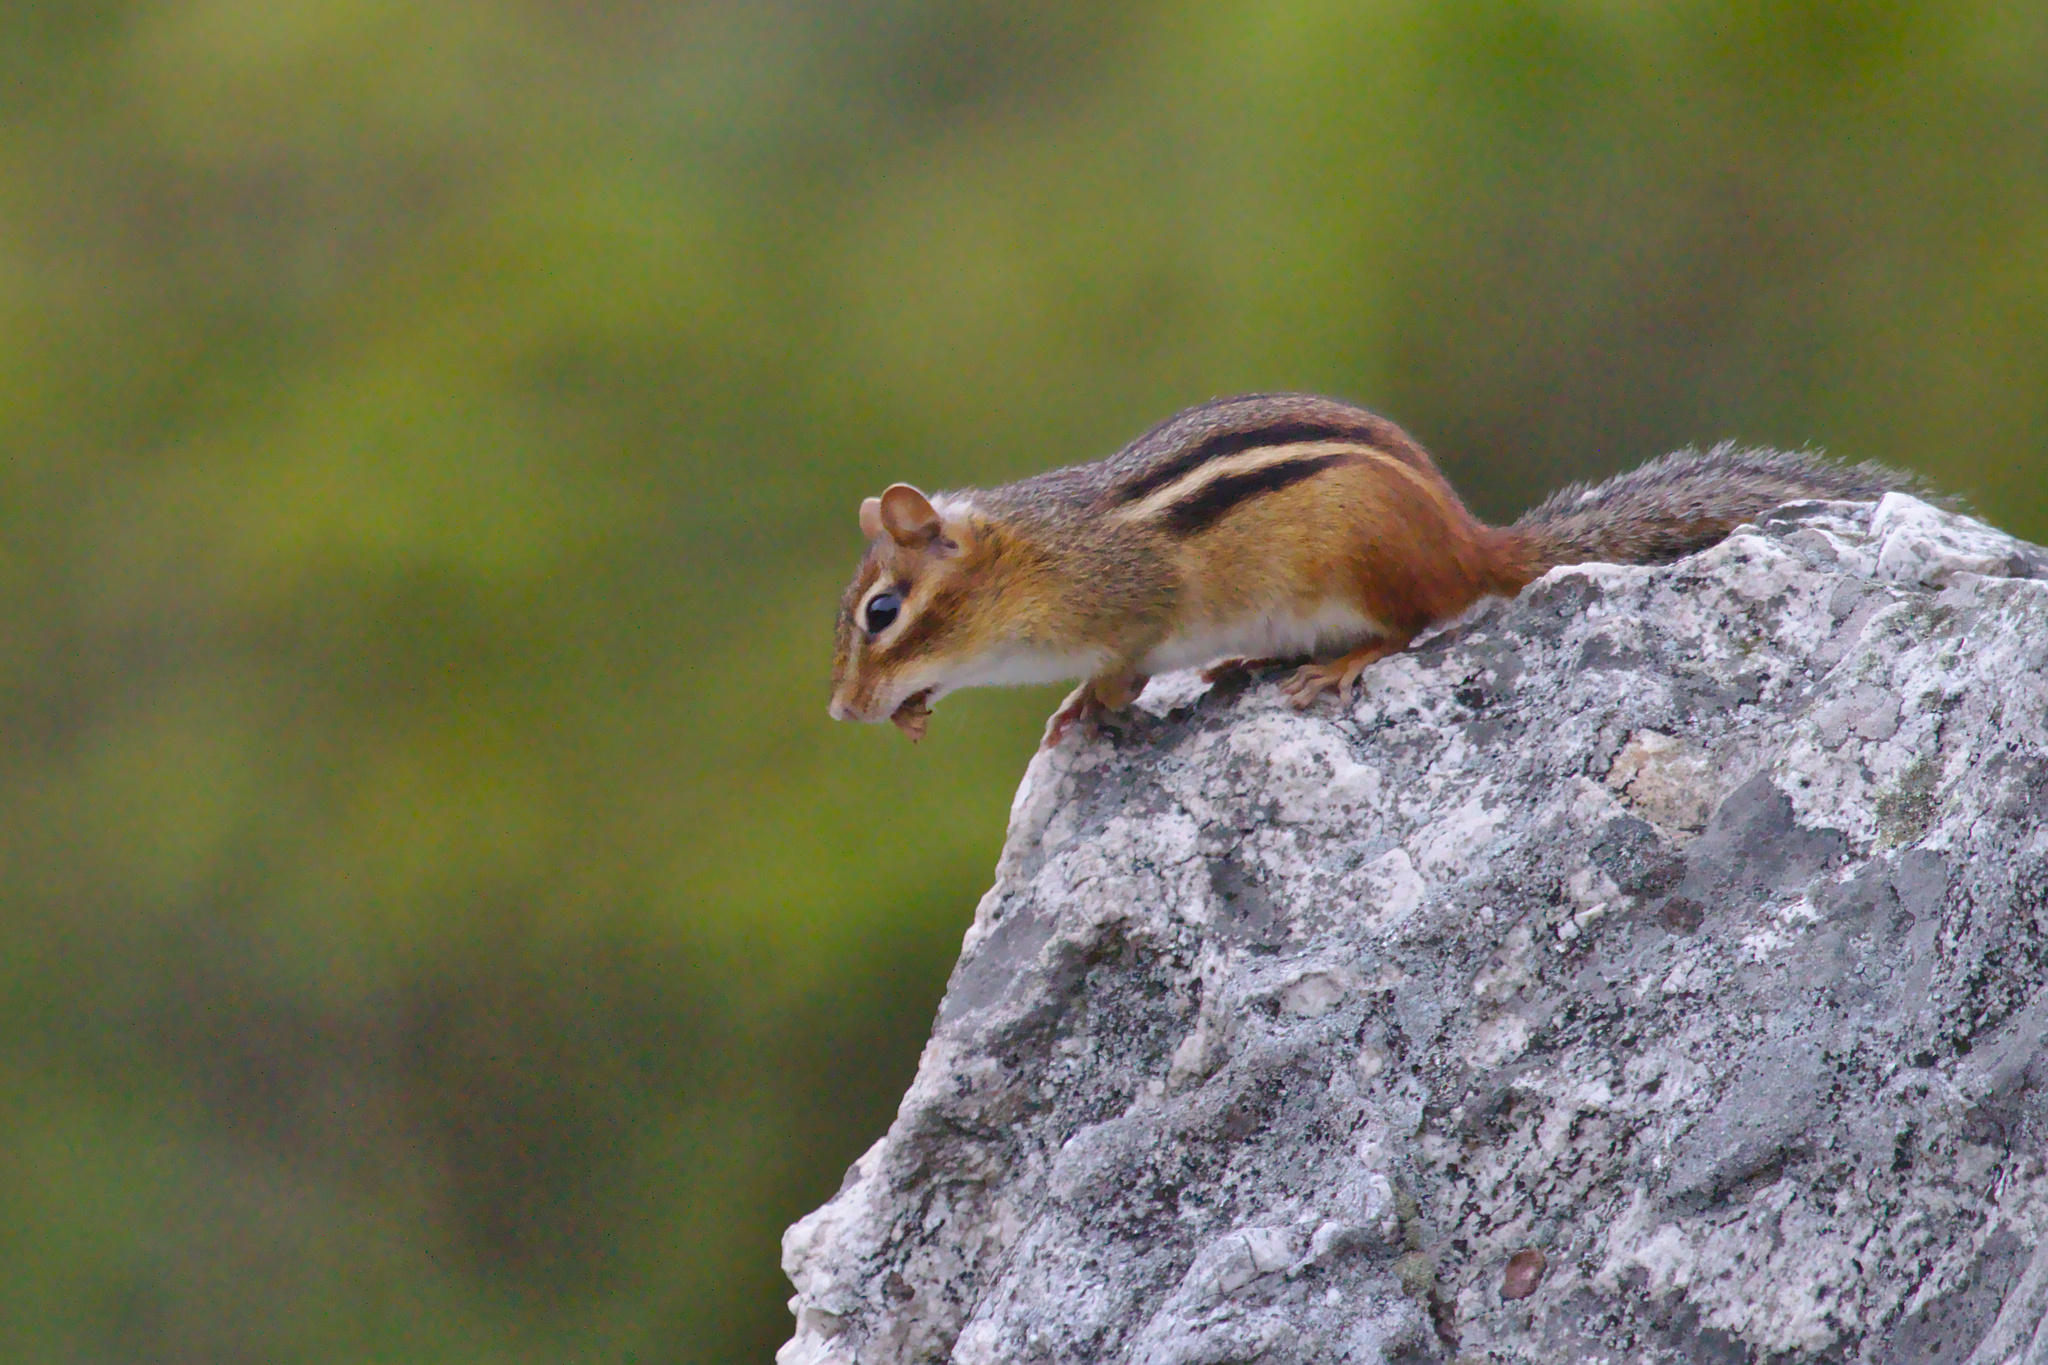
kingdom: Animalia
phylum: Chordata
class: Mammalia
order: Rodentia
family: Sciuridae
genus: Tamias
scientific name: Tamias striatus
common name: Eastern chipmunk
